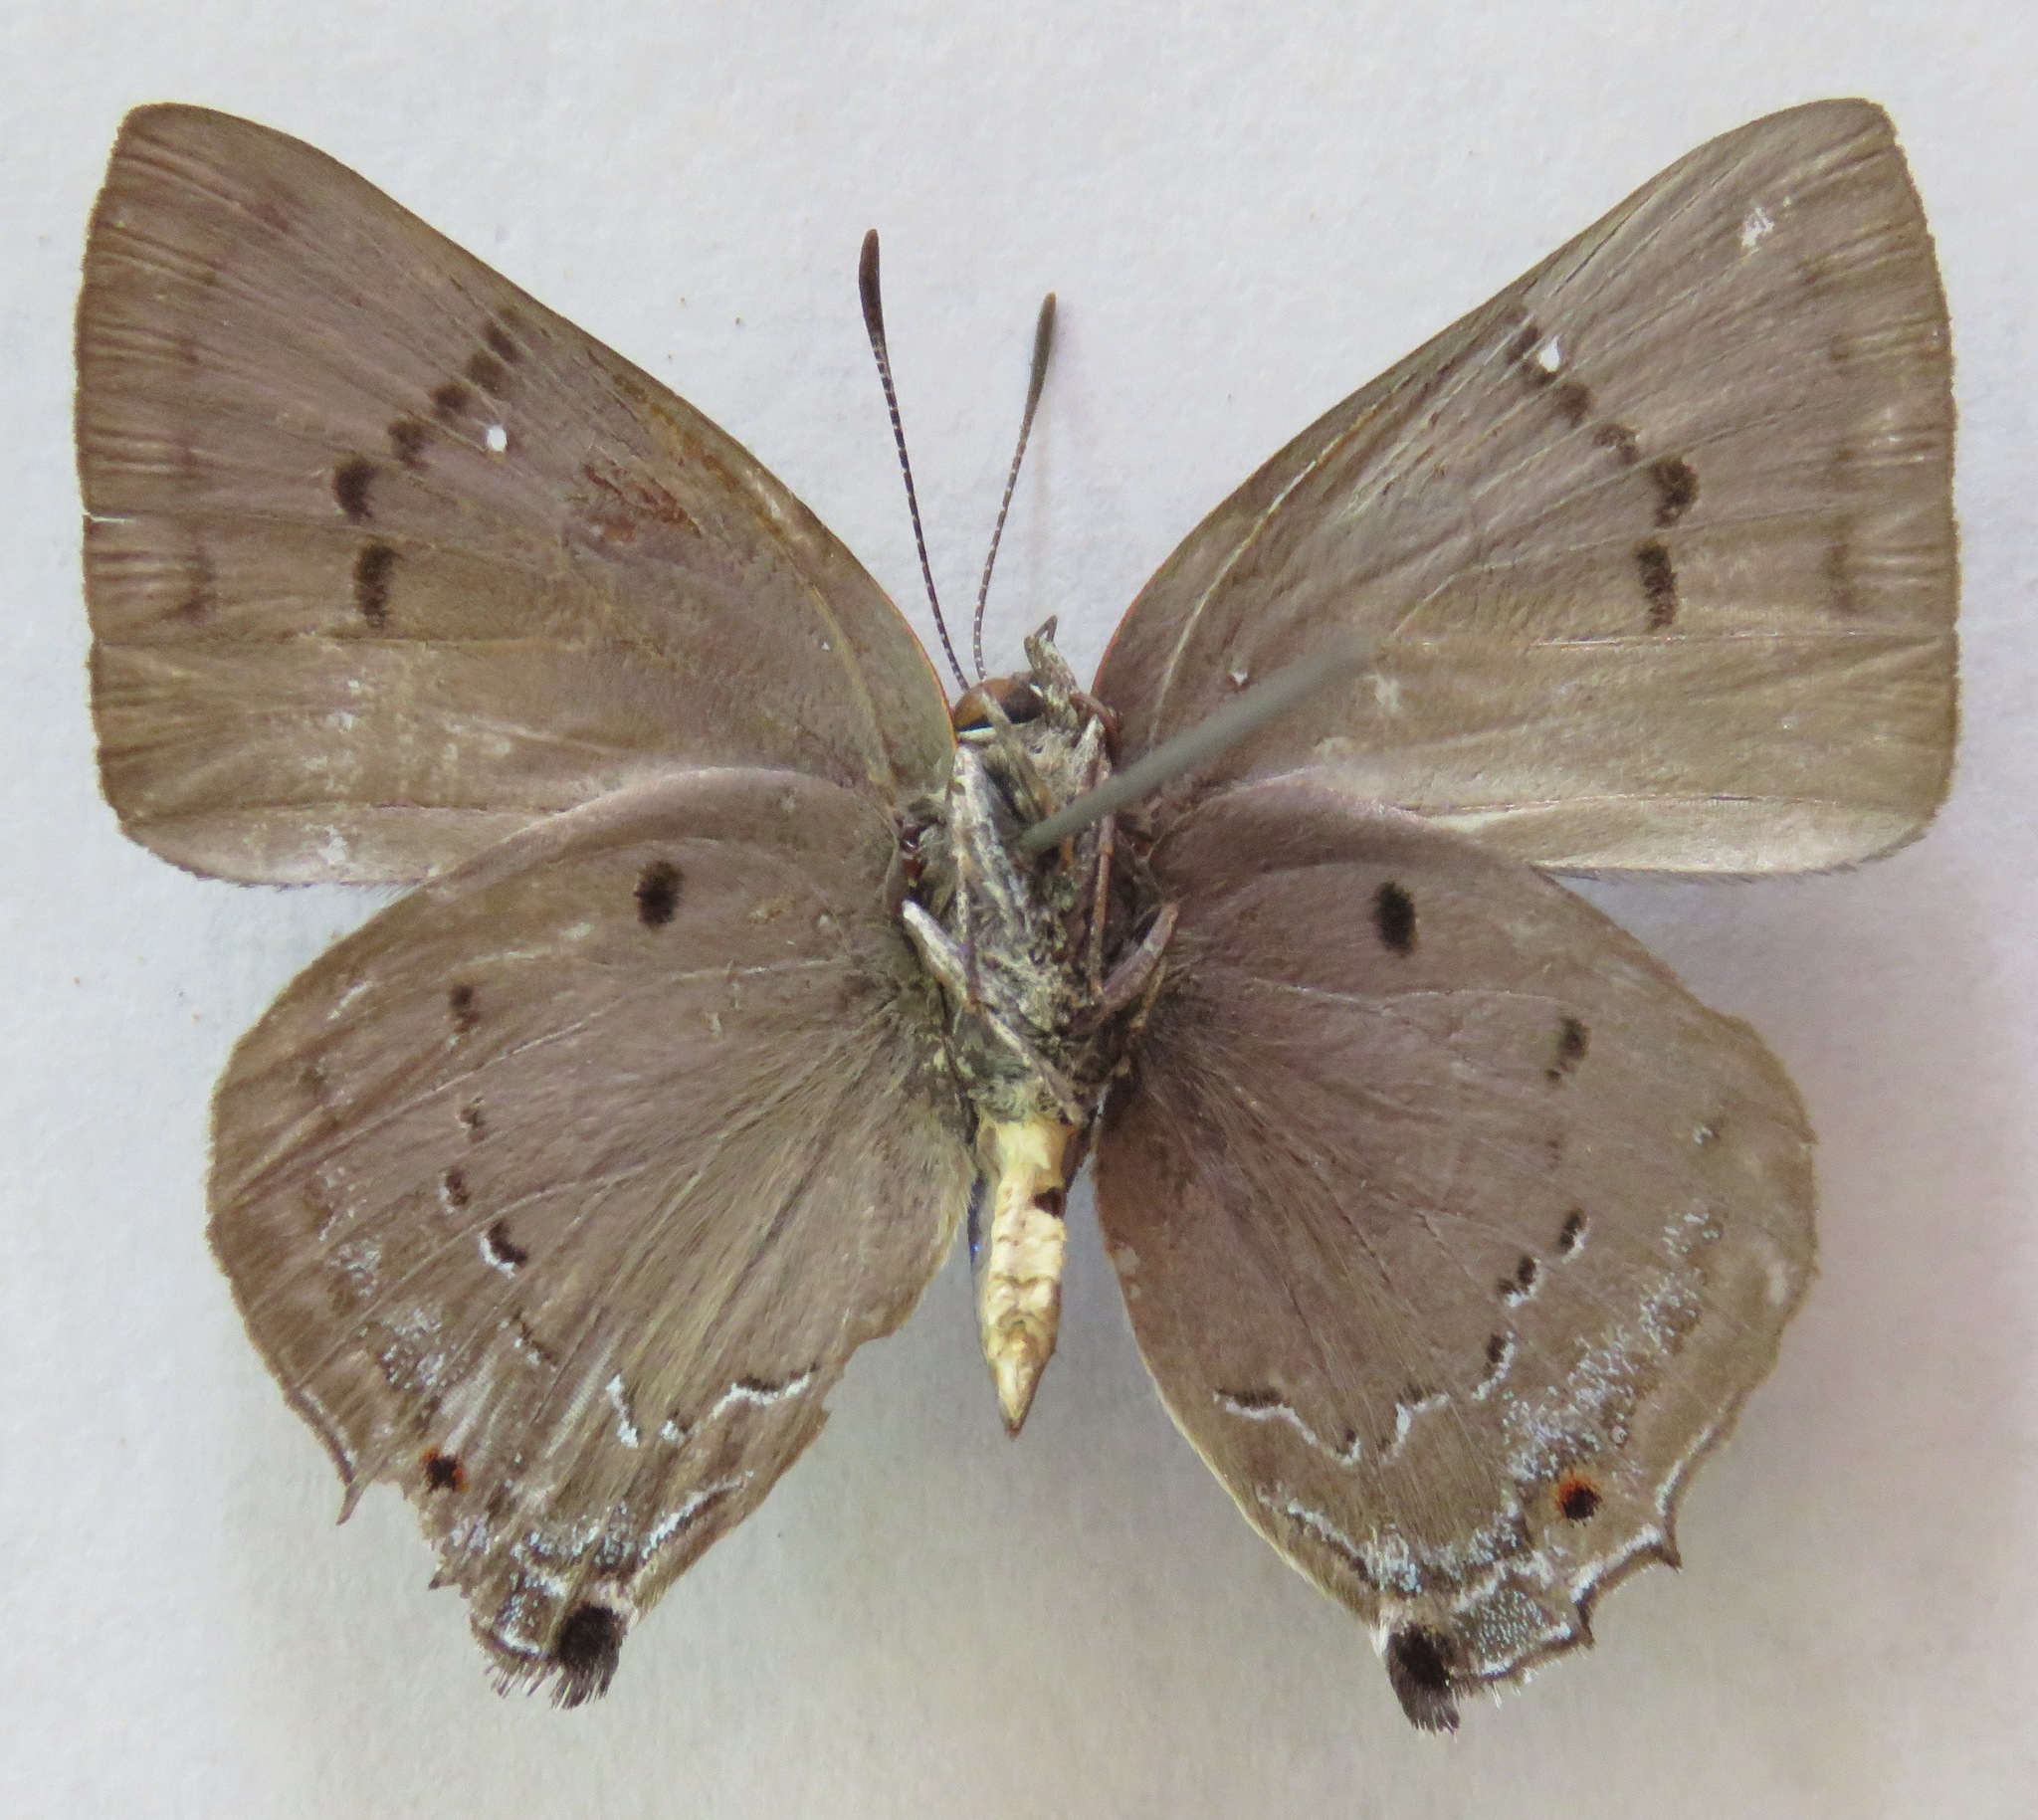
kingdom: Animalia
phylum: Arthropoda
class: Insecta
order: Lepidoptera
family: Lycaenidae
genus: Parrhasius
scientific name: Parrhasius polibetes
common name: Black-spot hairstreak
